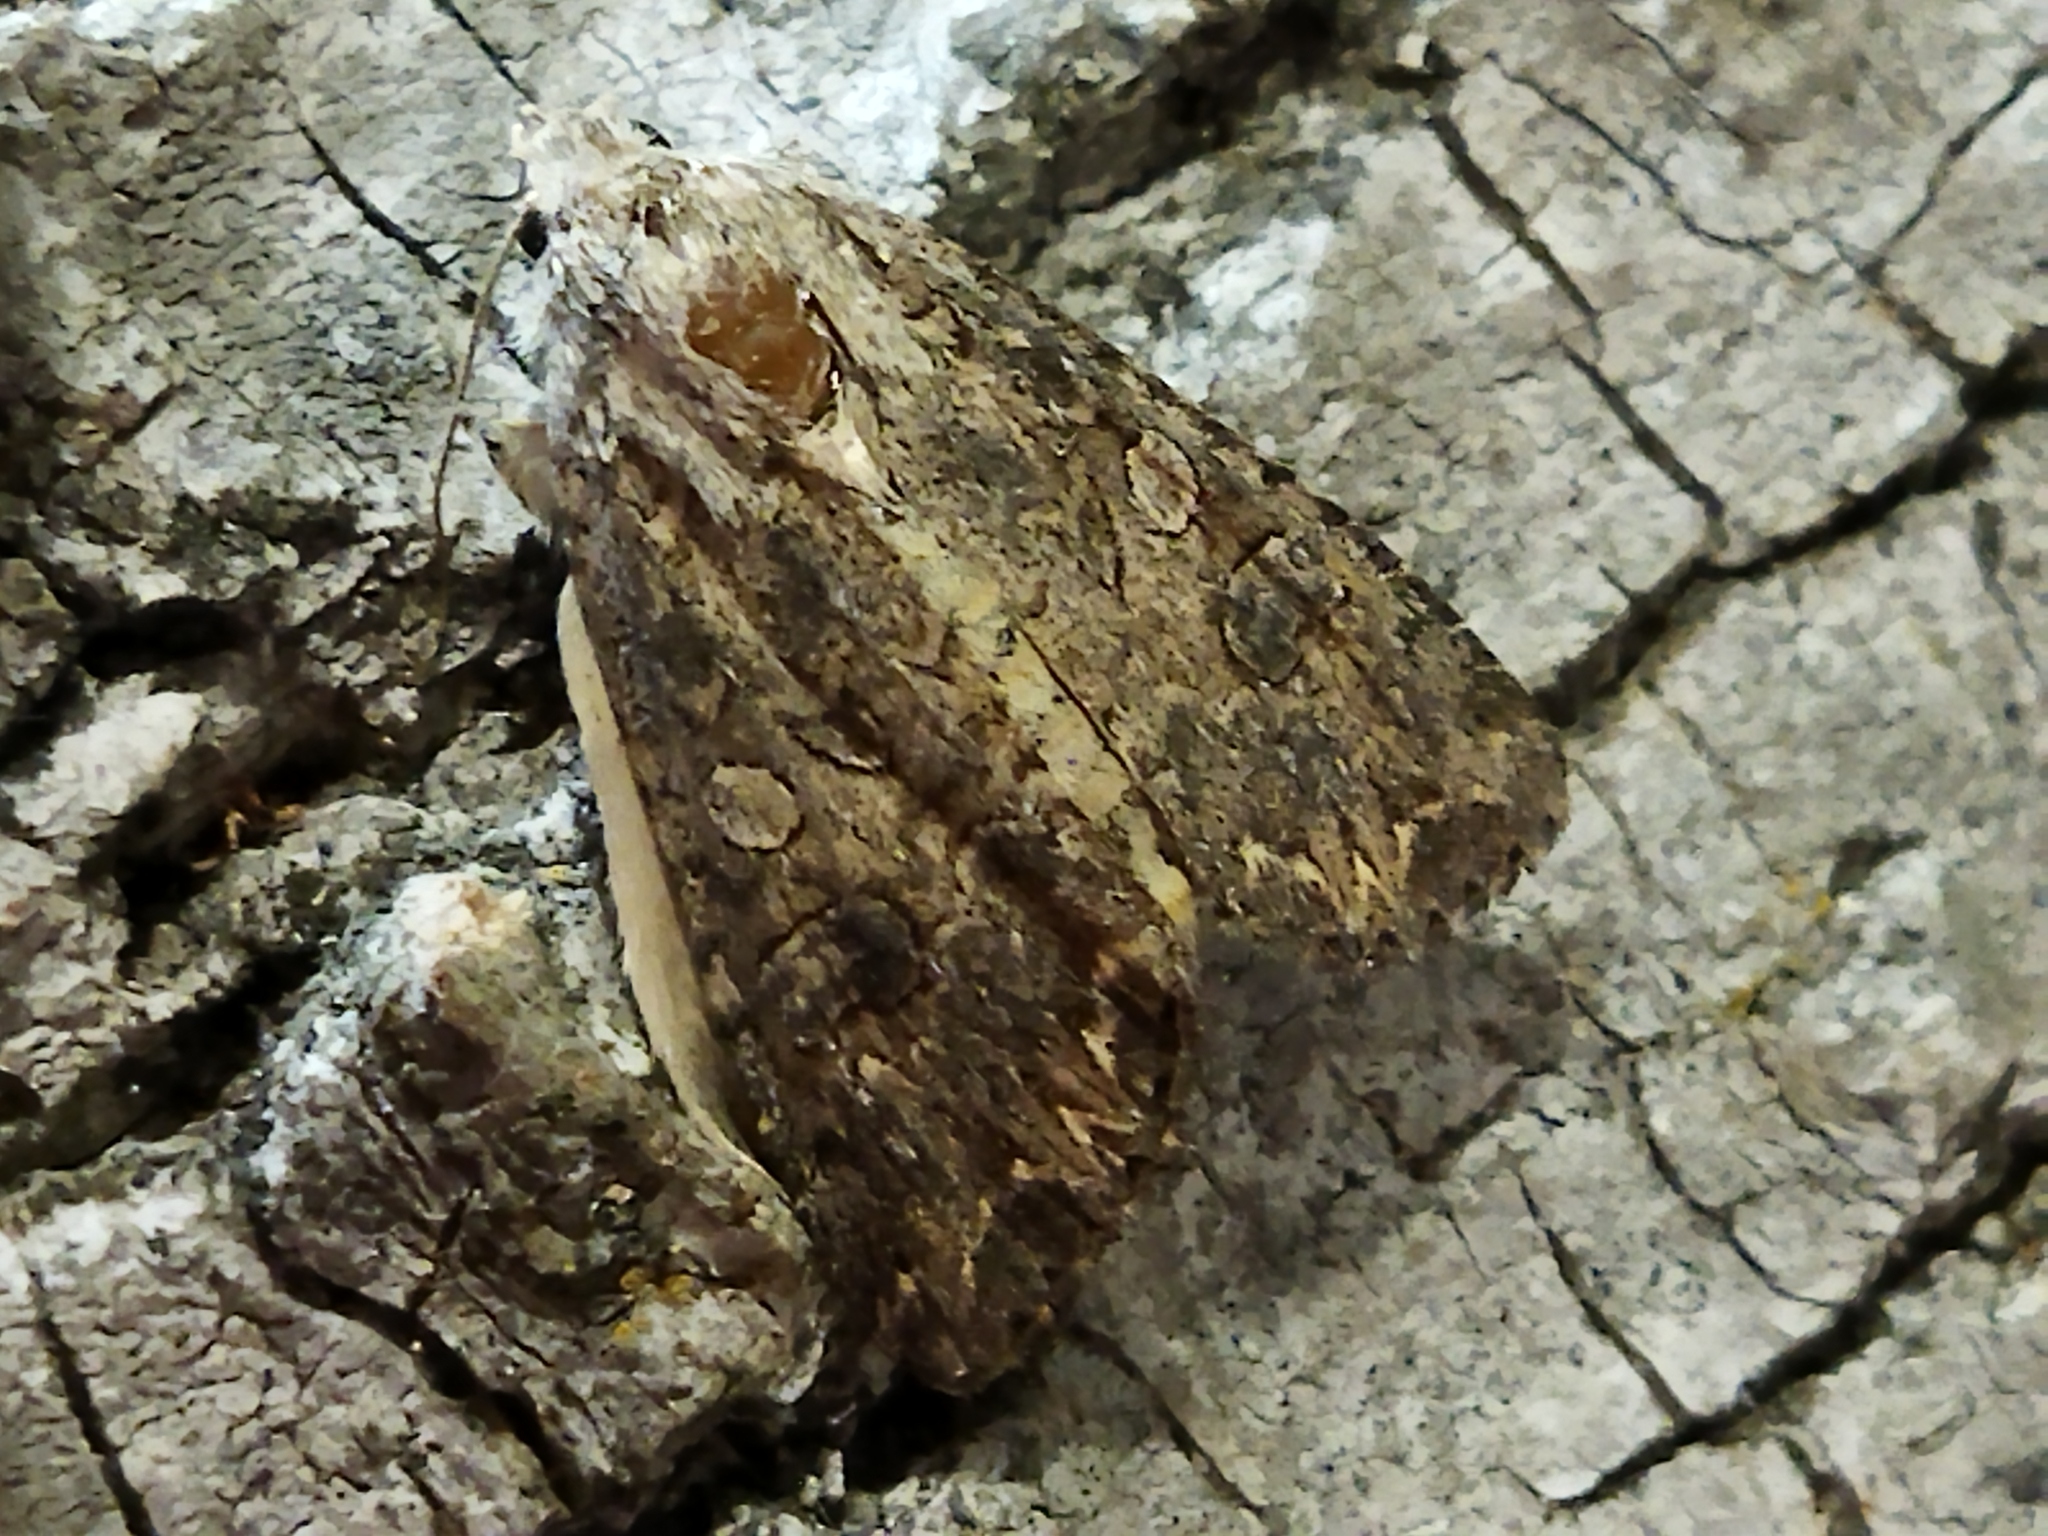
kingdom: Animalia
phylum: Arthropoda
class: Insecta
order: Lepidoptera
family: Noctuidae
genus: Anarta
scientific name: Anarta trifolii
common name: Clover cutworm moth
